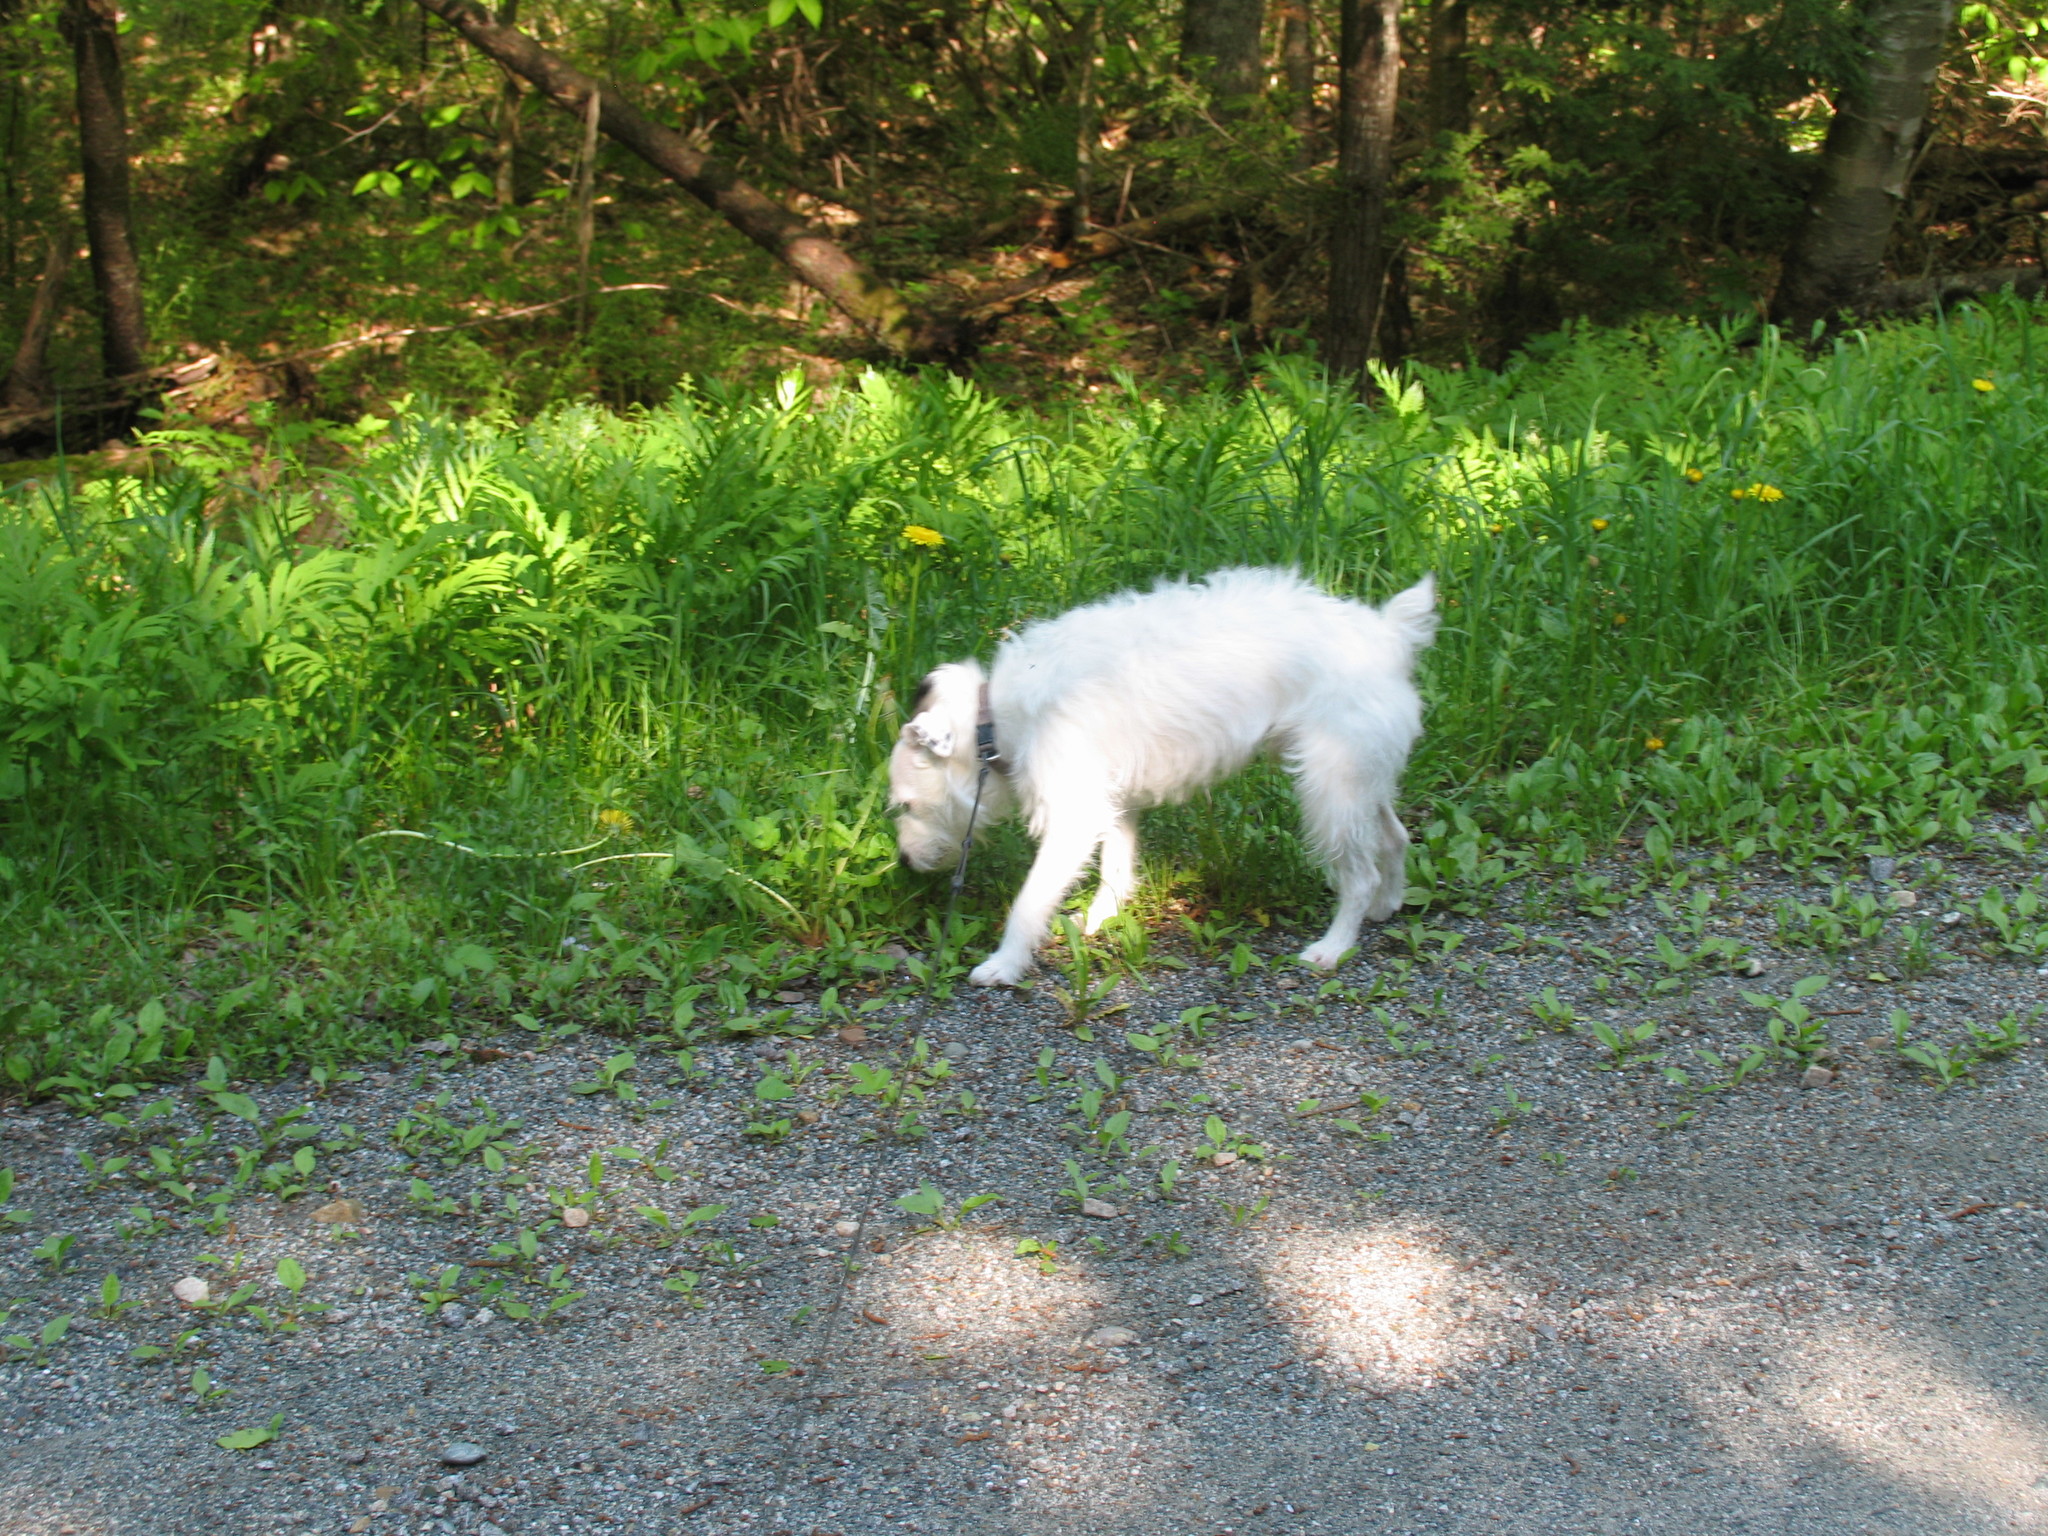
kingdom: Plantae
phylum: Tracheophyta
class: Polypodiopsida
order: Polypodiales
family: Onocleaceae
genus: Onoclea
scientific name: Onoclea sensibilis
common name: Sensitive fern
